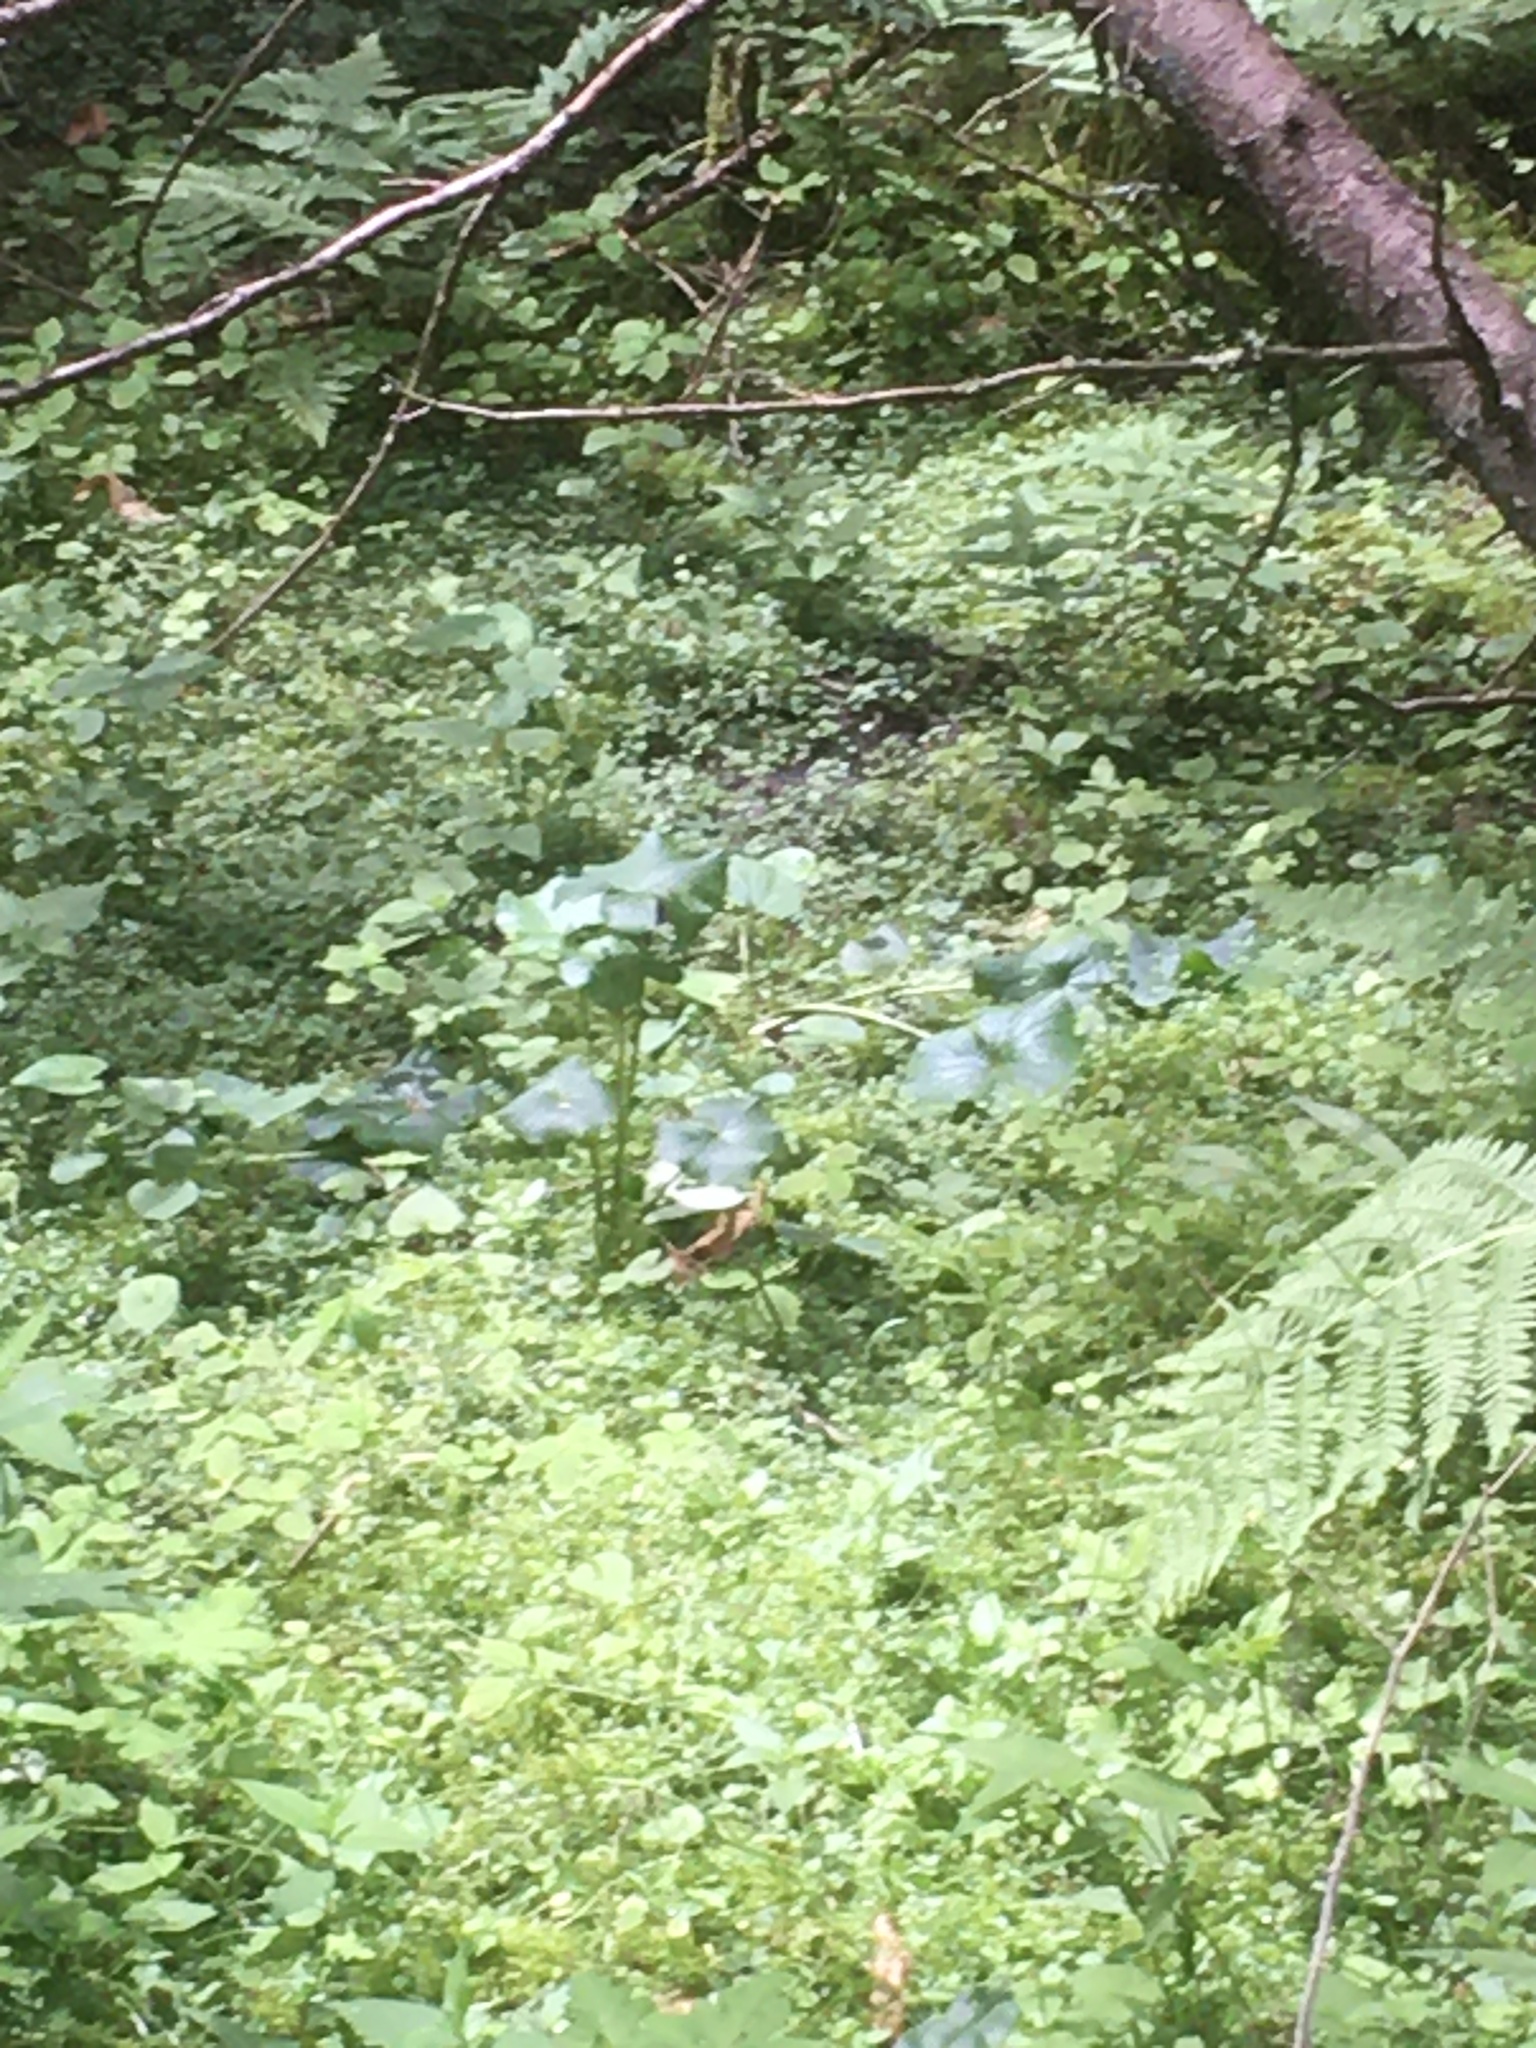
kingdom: Plantae
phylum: Tracheophyta
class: Magnoliopsida
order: Ranunculales
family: Ranunculaceae
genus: Caltha
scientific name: Caltha palustris
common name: Marsh marigold
